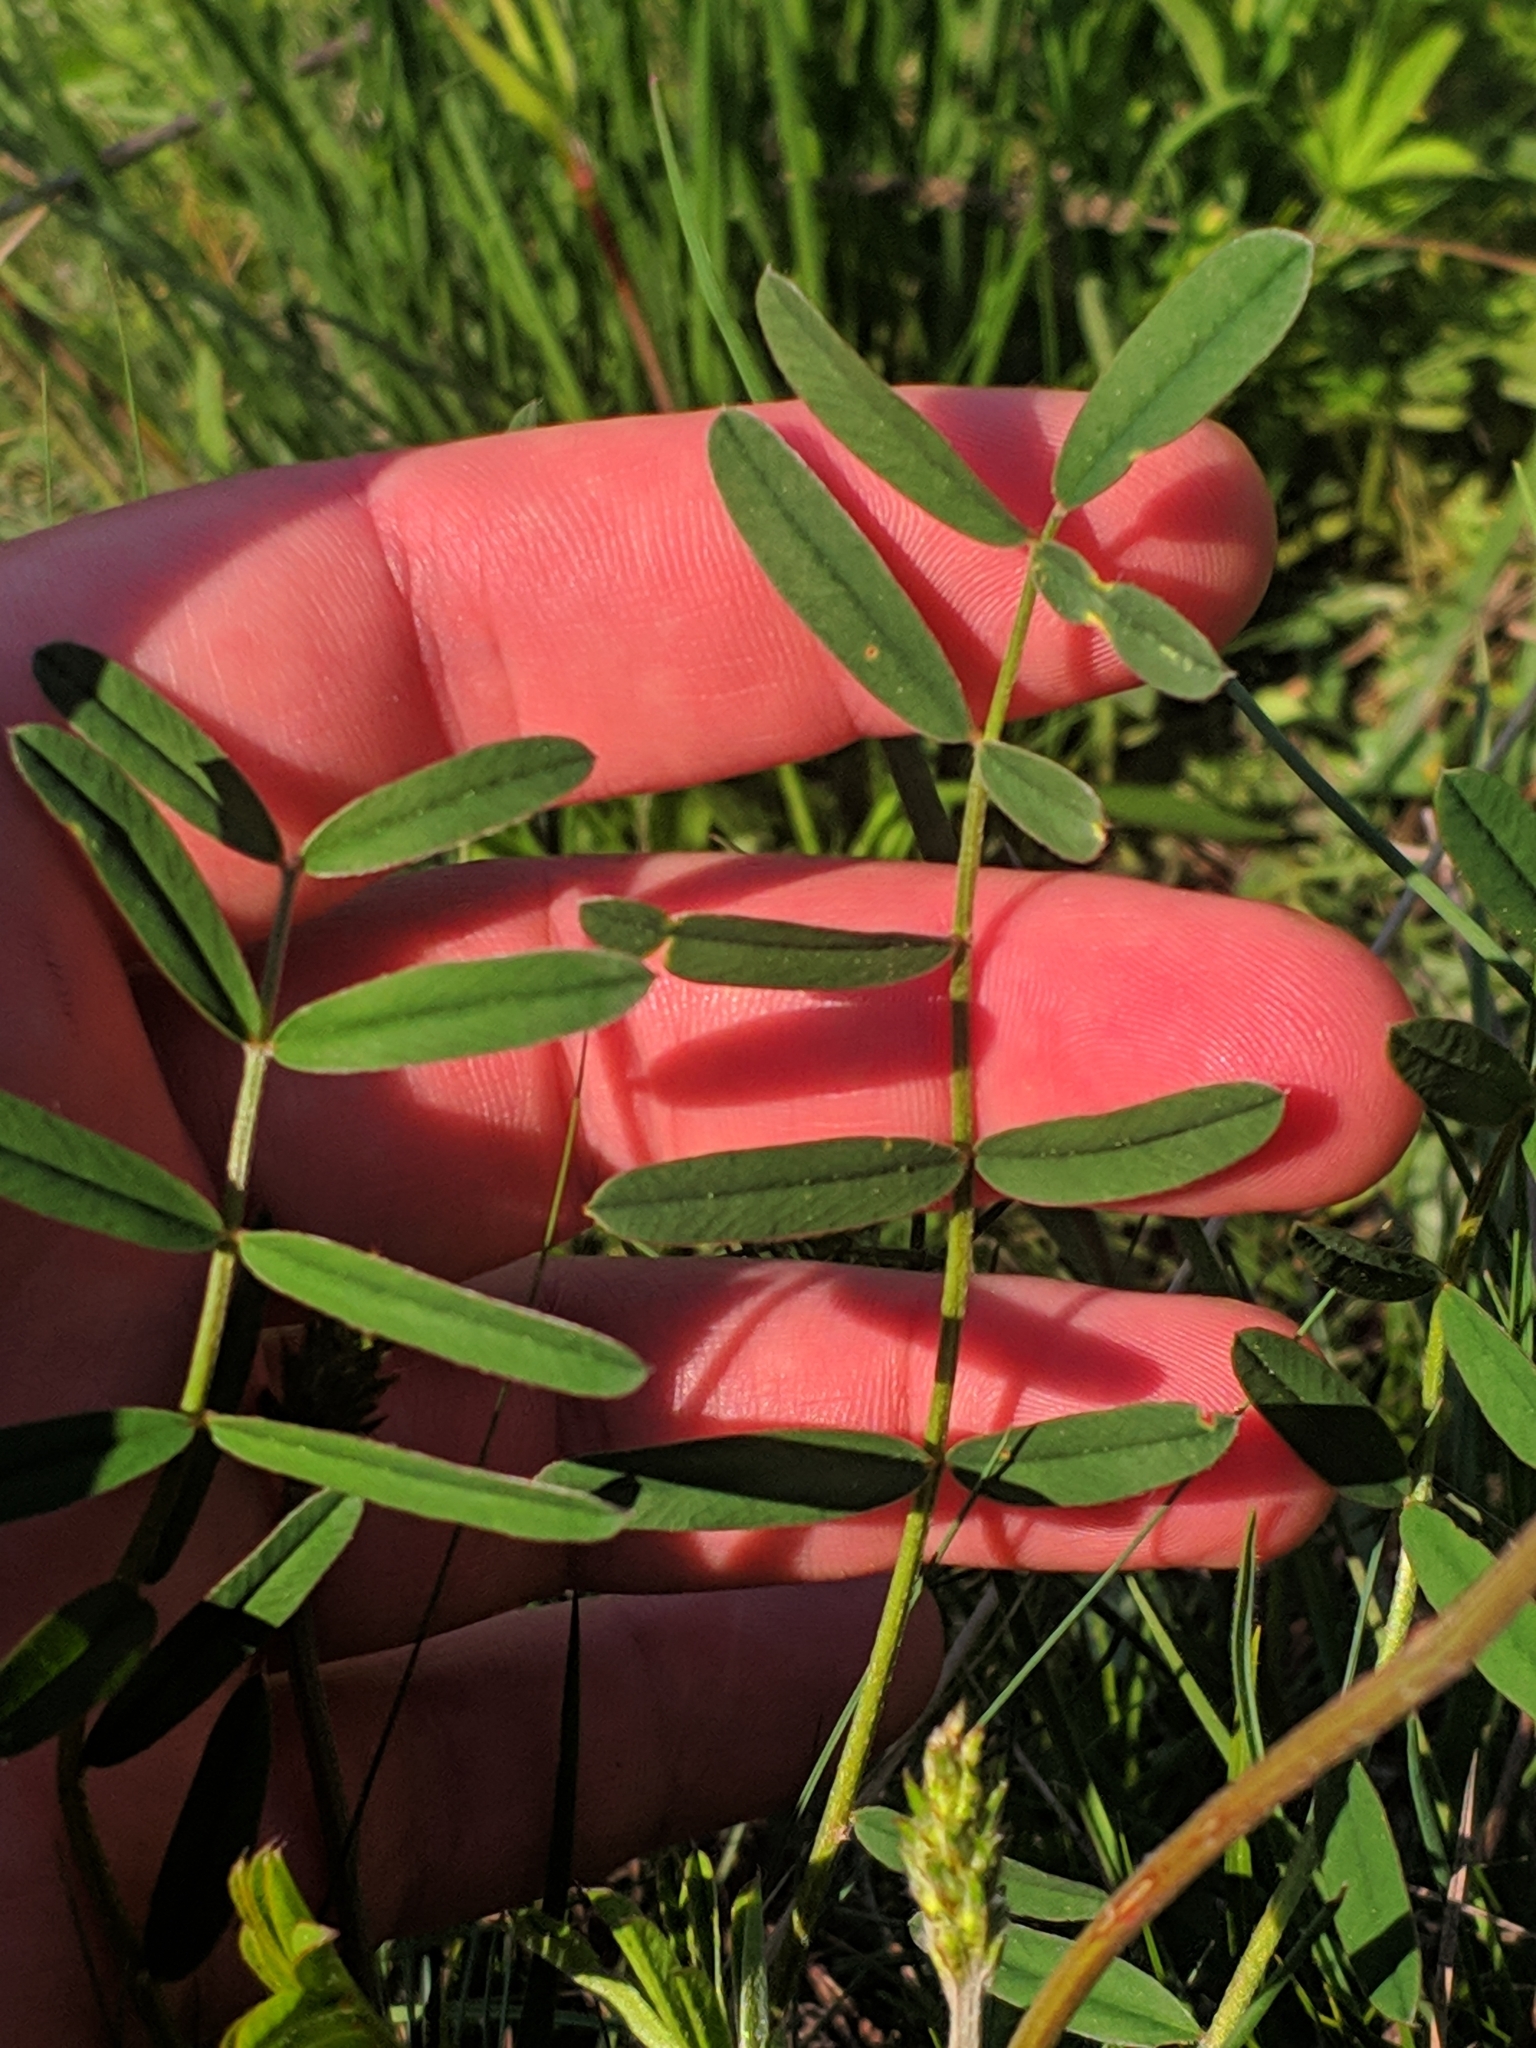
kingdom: Plantae
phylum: Tracheophyta
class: Magnoliopsida
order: Fabales
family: Fabaceae
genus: Onobrychis
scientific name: Onobrychis montana
